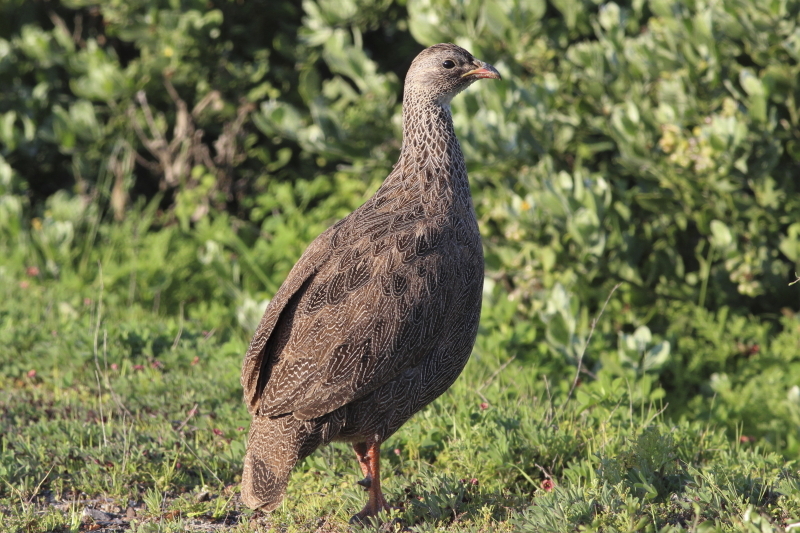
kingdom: Animalia
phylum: Chordata
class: Aves
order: Galliformes
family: Phasianidae
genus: Pternistis
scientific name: Pternistis capensis
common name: Cape spurfowl
